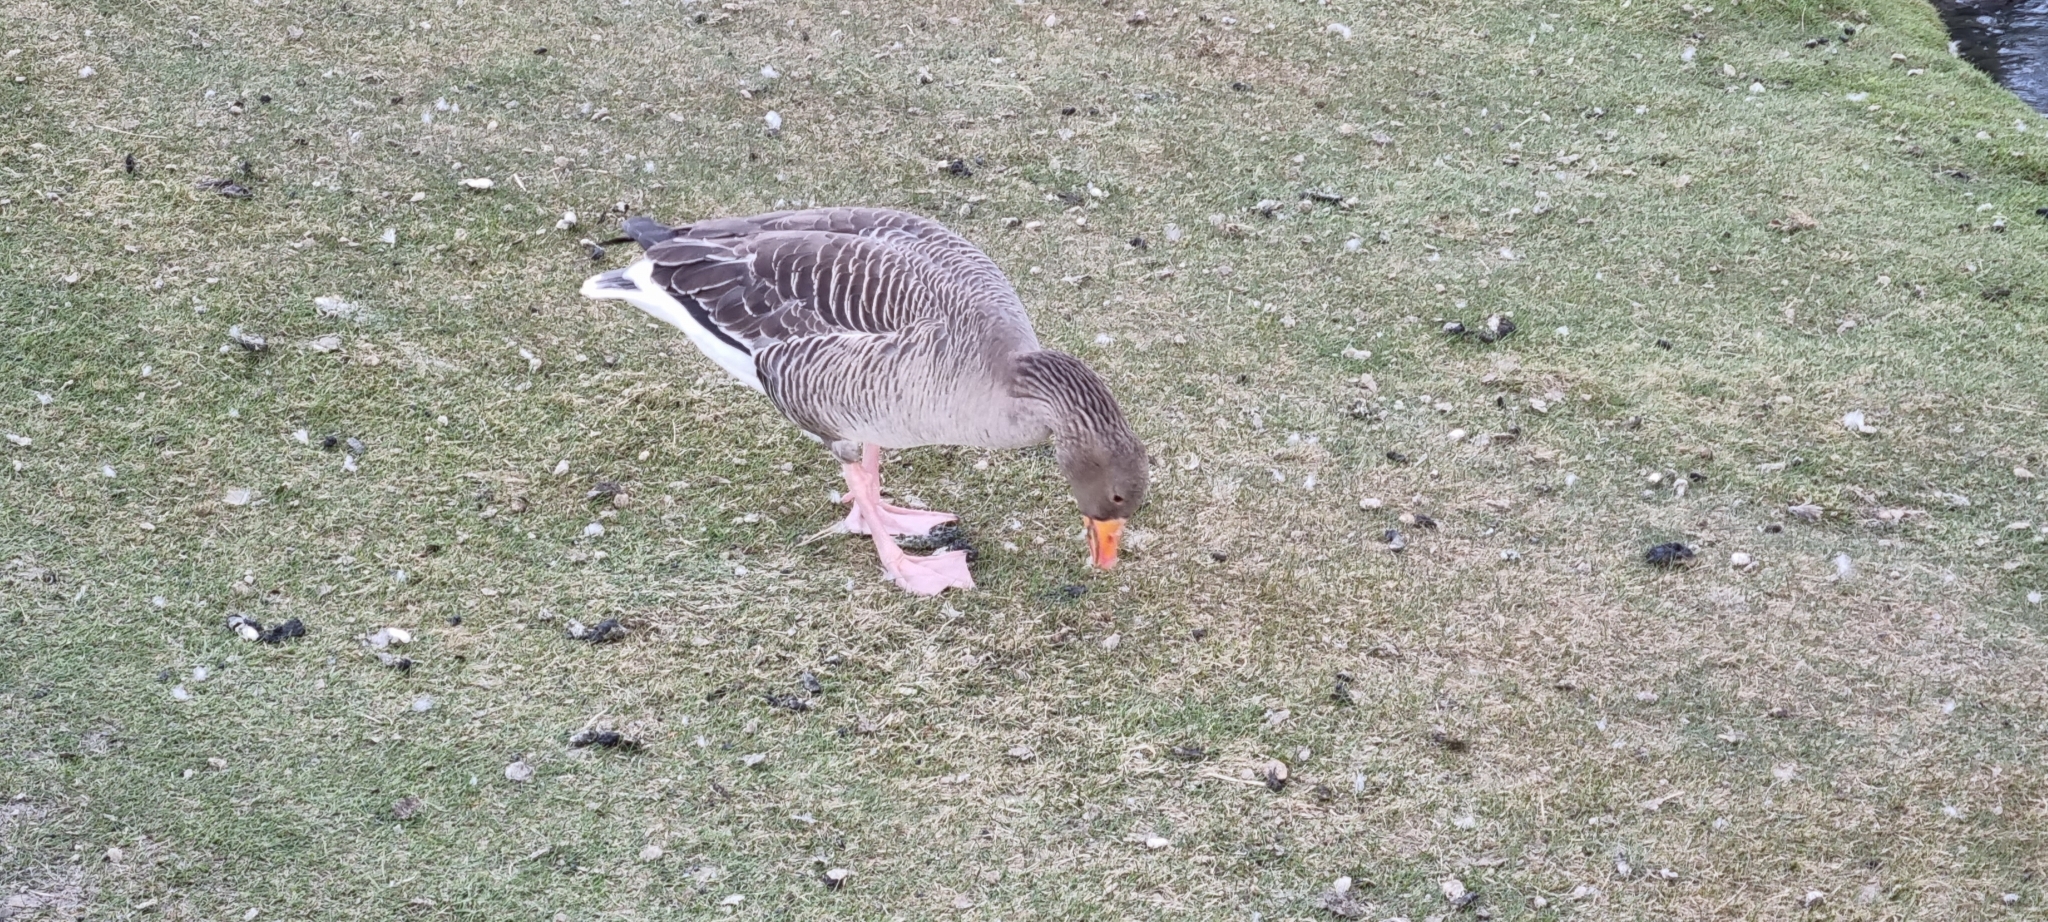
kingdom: Animalia
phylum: Chordata
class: Aves
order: Anseriformes
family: Anatidae
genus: Anser
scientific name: Anser anser
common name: Greylag goose
